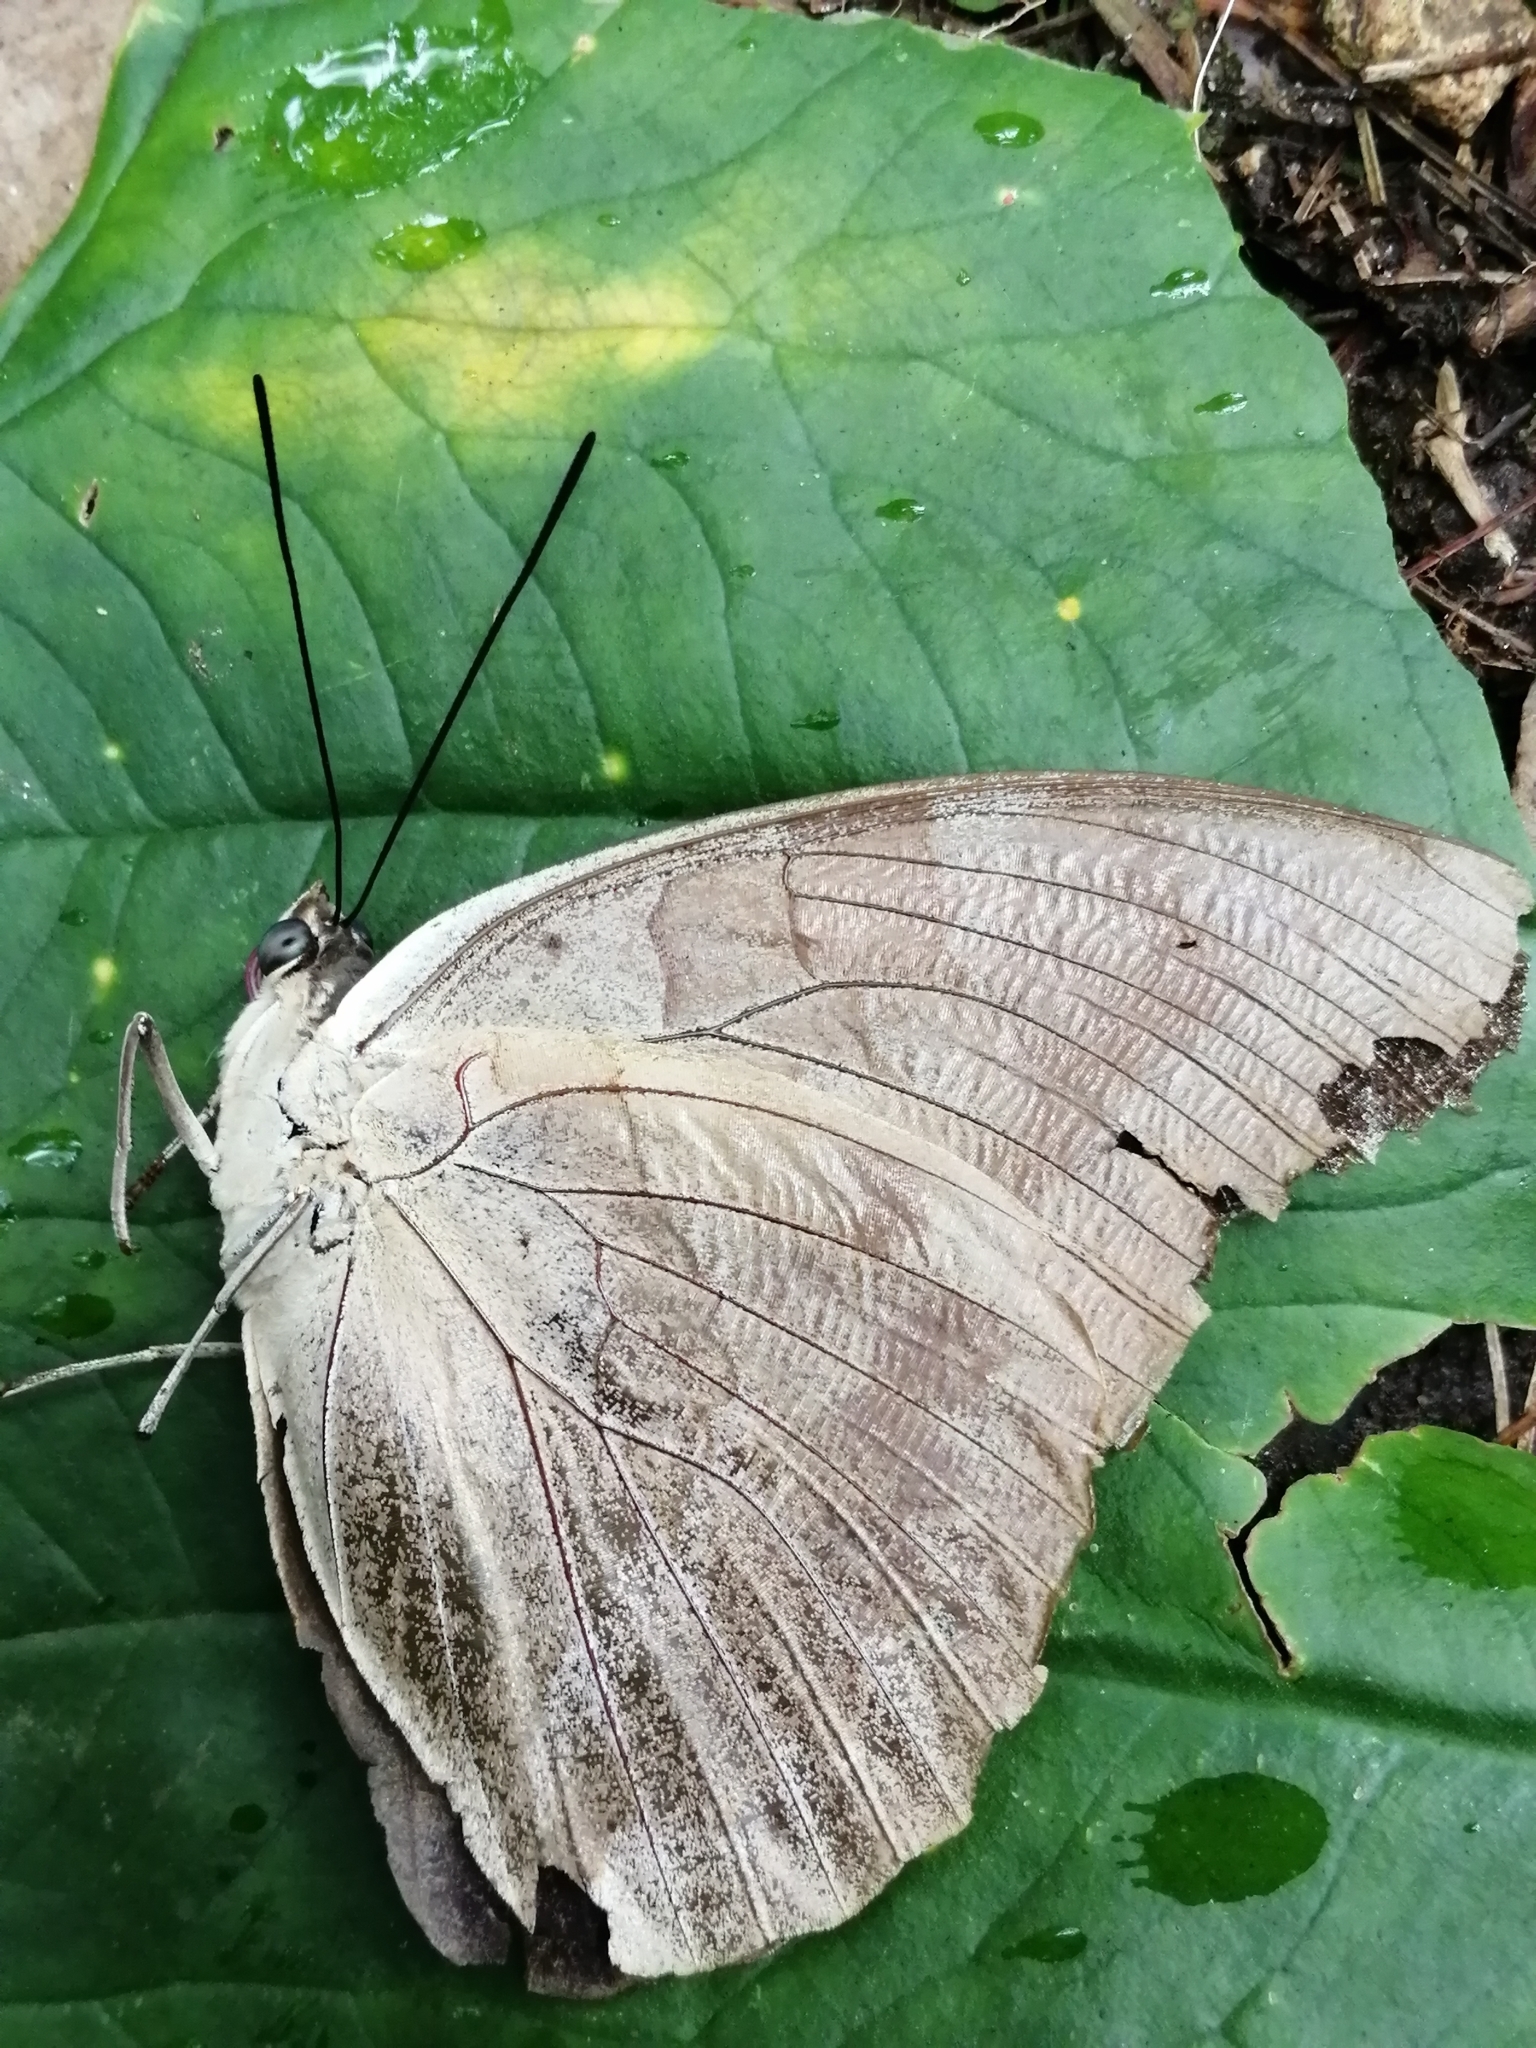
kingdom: Animalia
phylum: Arthropoda
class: Insecta
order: Lepidoptera
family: Nymphalidae
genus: Prepona
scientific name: Prepona Archaeoprepona demophon
